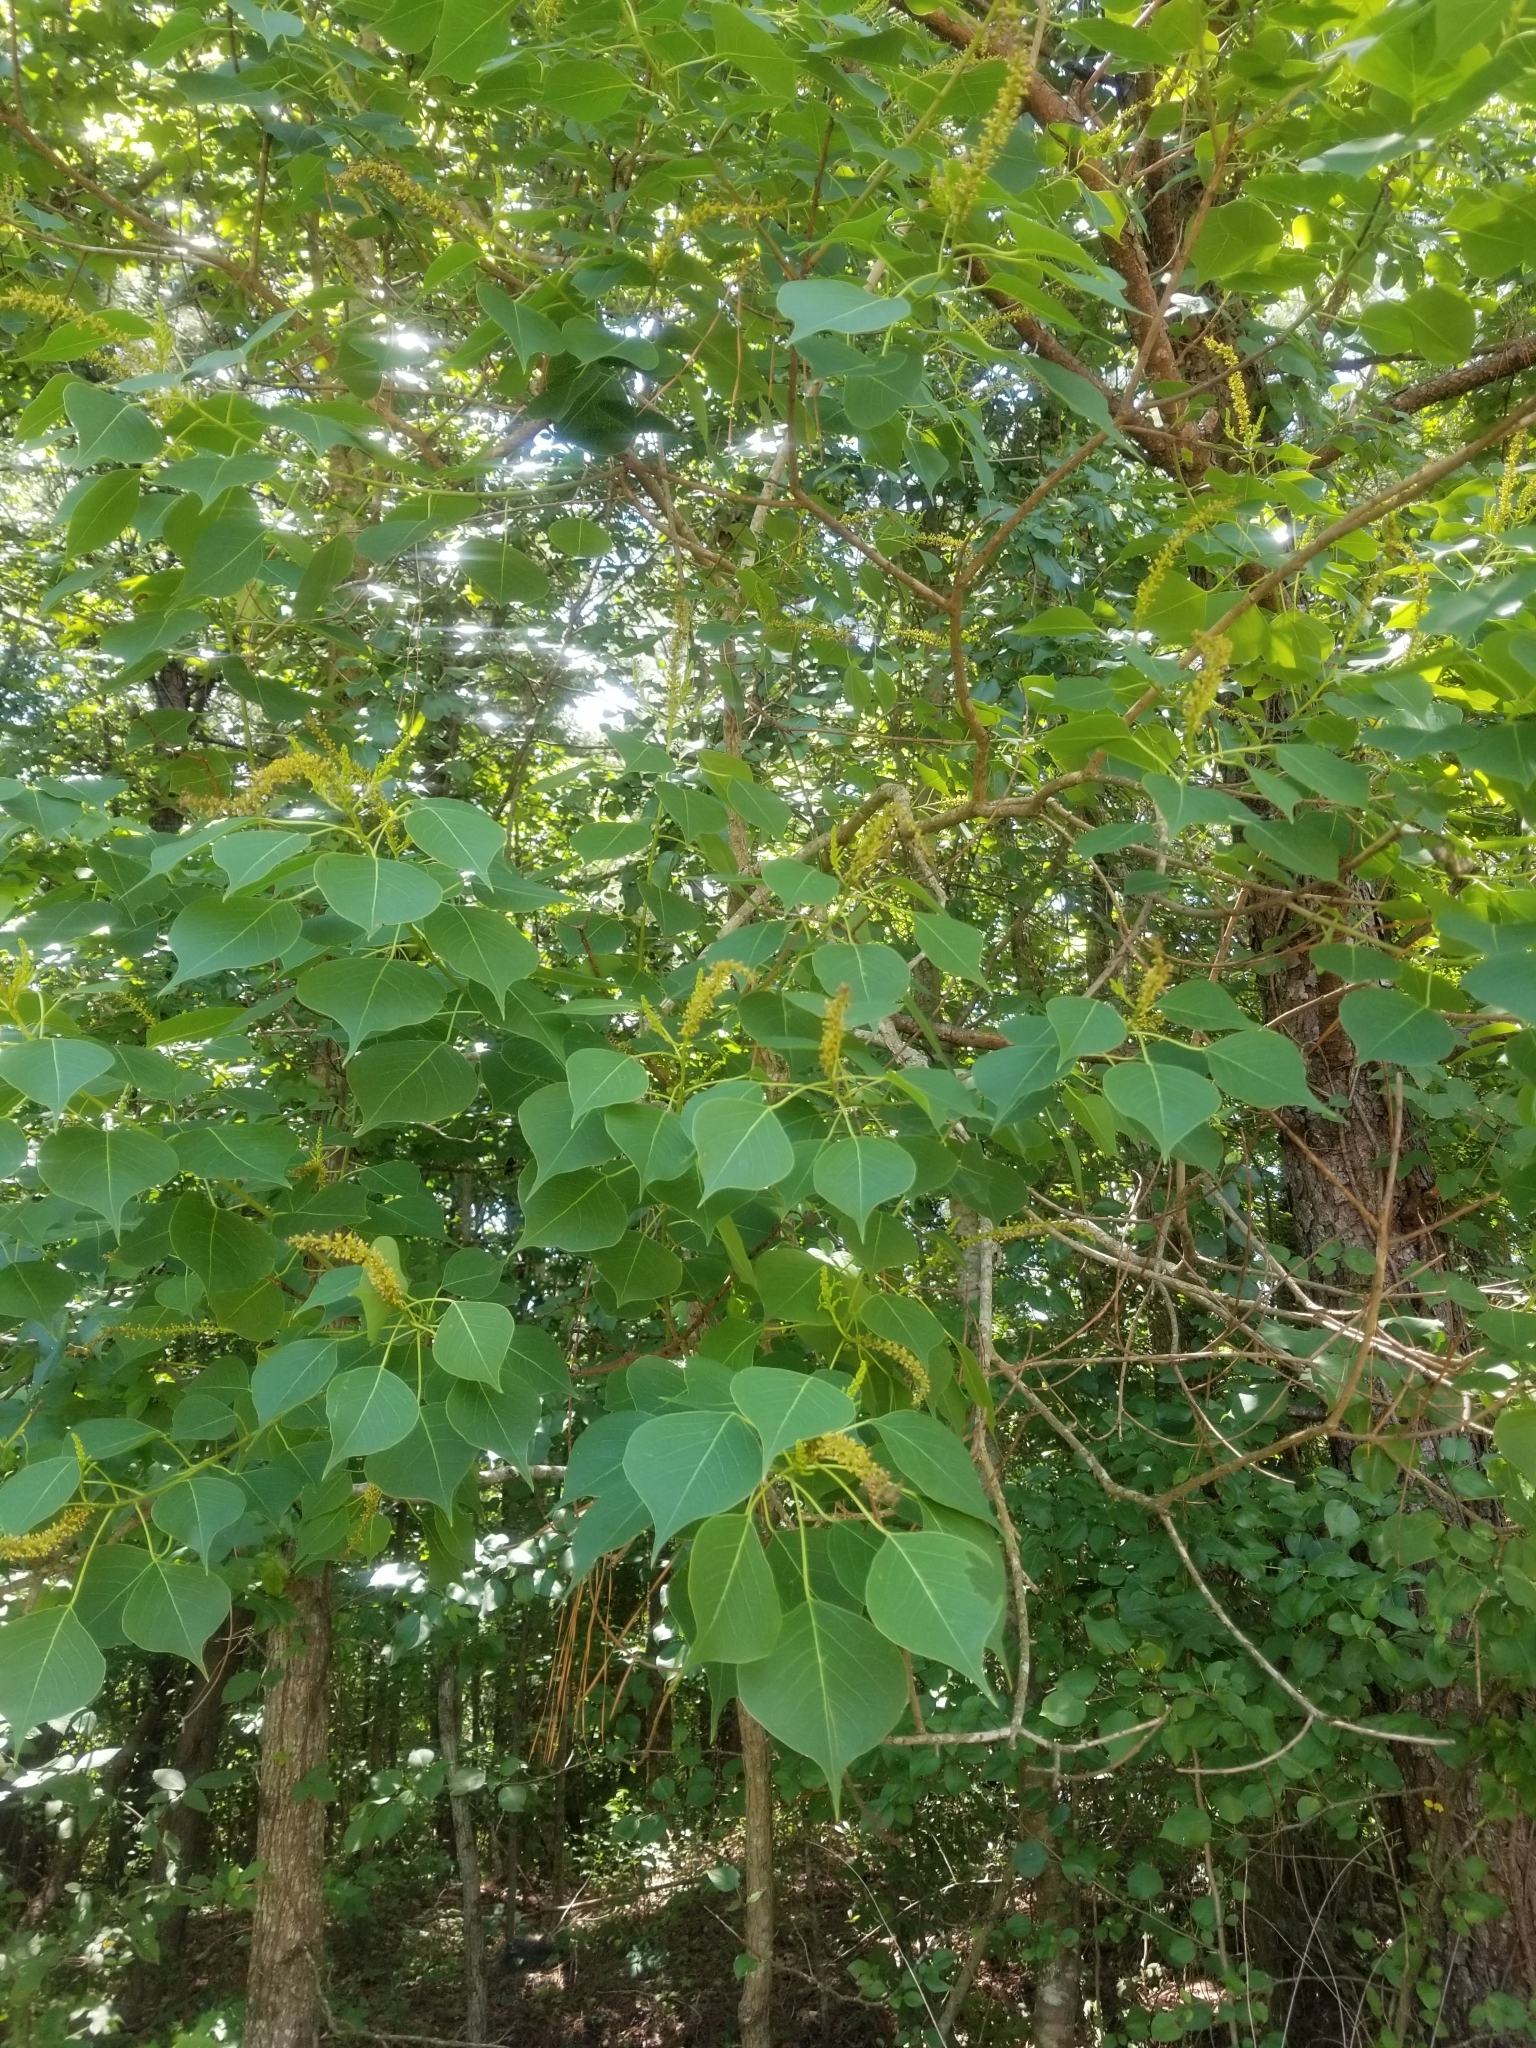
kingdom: Plantae
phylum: Tracheophyta
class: Magnoliopsida
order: Malpighiales
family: Euphorbiaceae
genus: Triadica
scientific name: Triadica sebifera
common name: Chinese tallow
